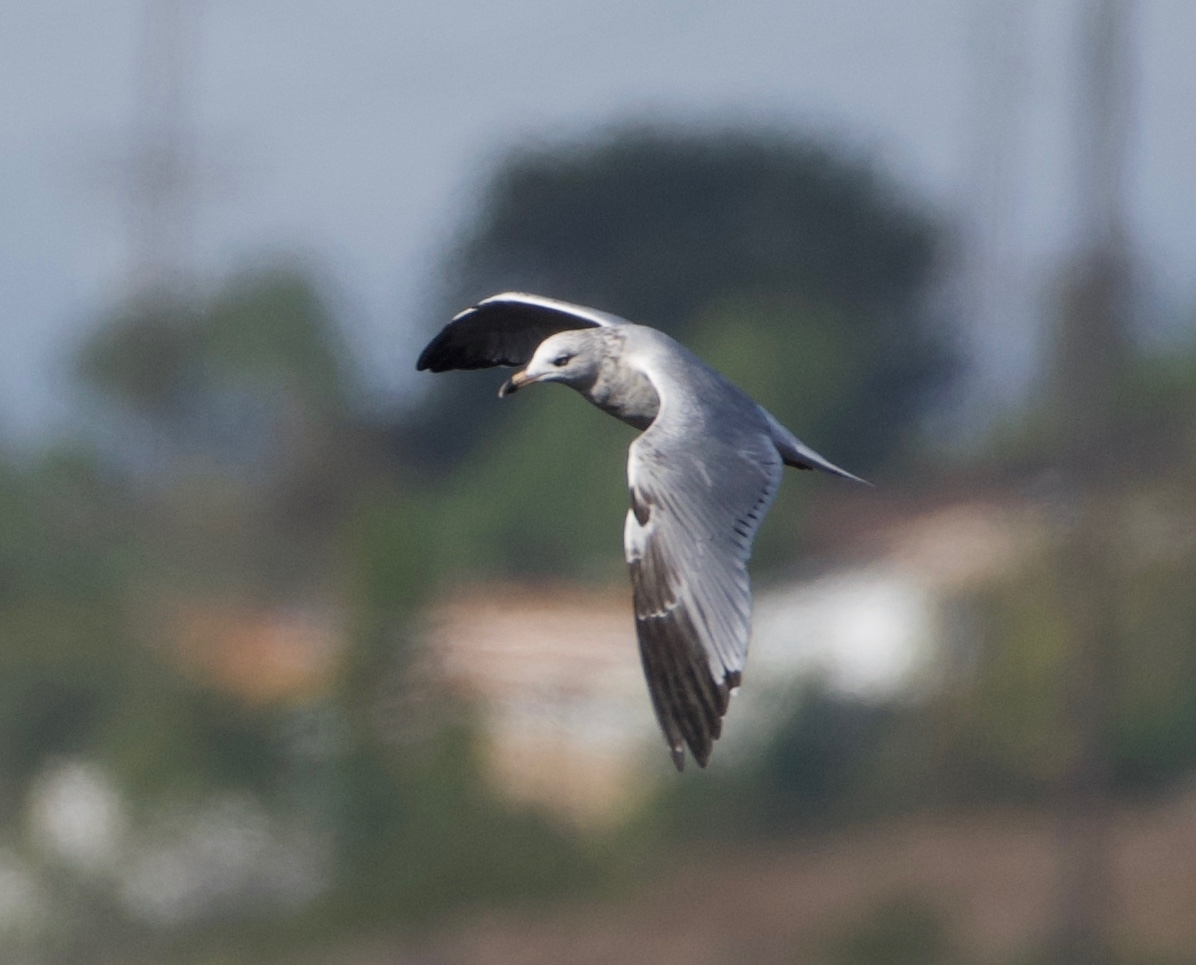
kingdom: Animalia
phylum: Chordata
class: Aves
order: Charadriiformes
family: Laridae
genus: Larus
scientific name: Larus delawarensis
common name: Ring-billed gull
